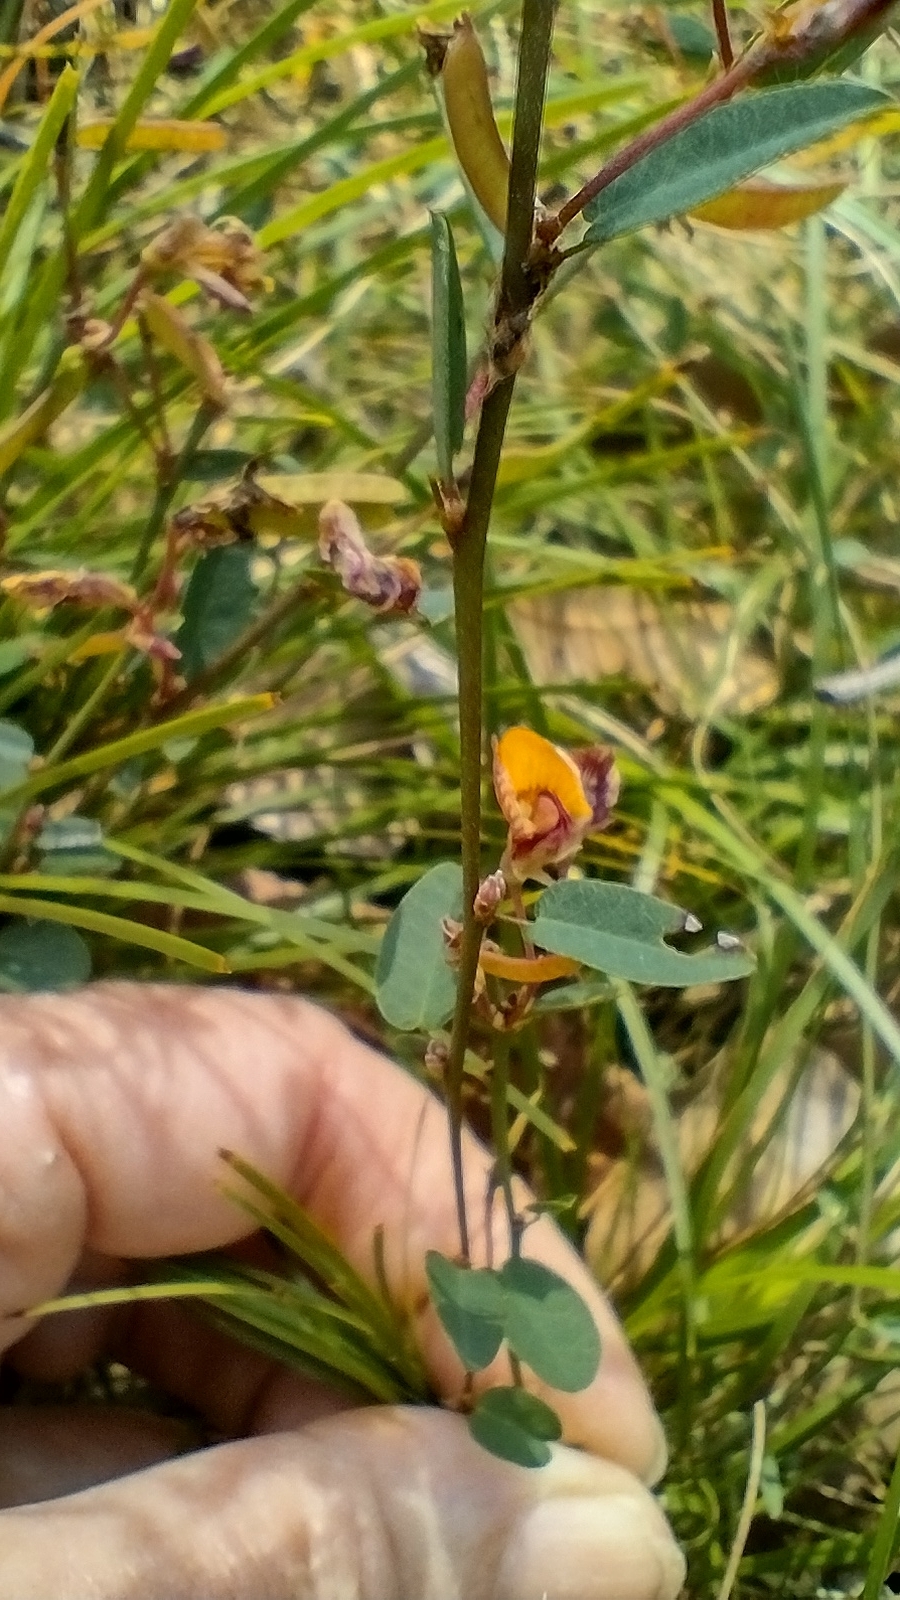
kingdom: Plantae
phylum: Tracheophyta
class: Magnoliopsida
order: Fabales
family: Fabaceae
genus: Bossiaea
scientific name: Bossiaea prostrata
